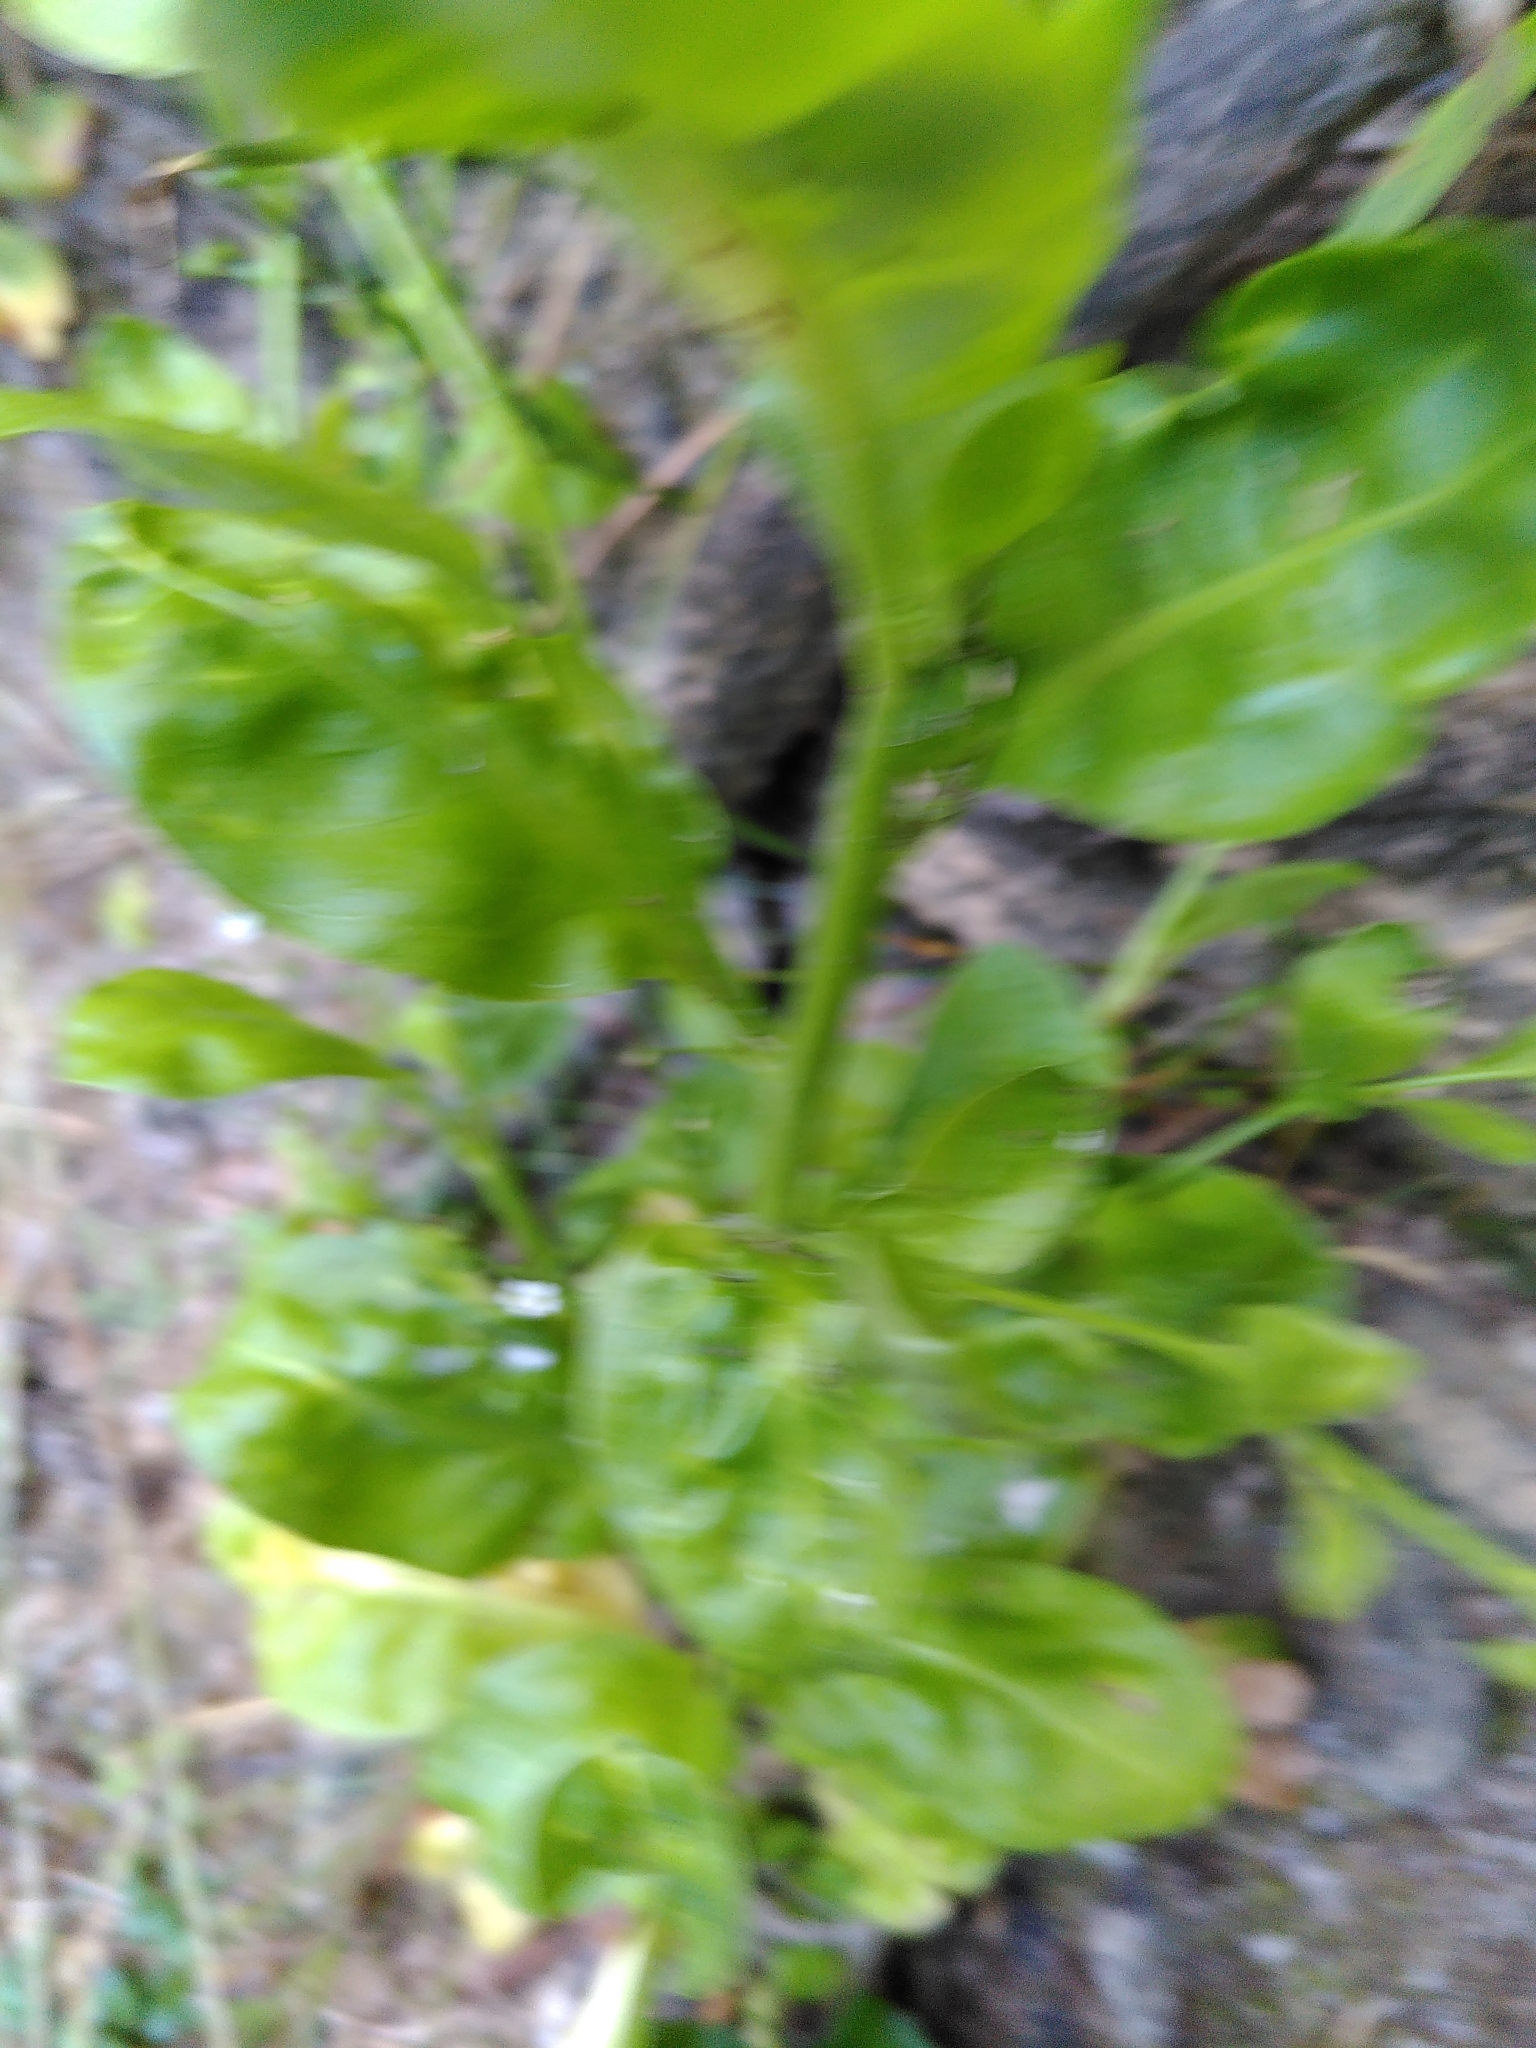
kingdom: Plantae
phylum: Tracheophyta
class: Magnoliopsida
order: Ericales
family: Primulaceae
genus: Samolus
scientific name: Samolus valerandi
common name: Brookweed
